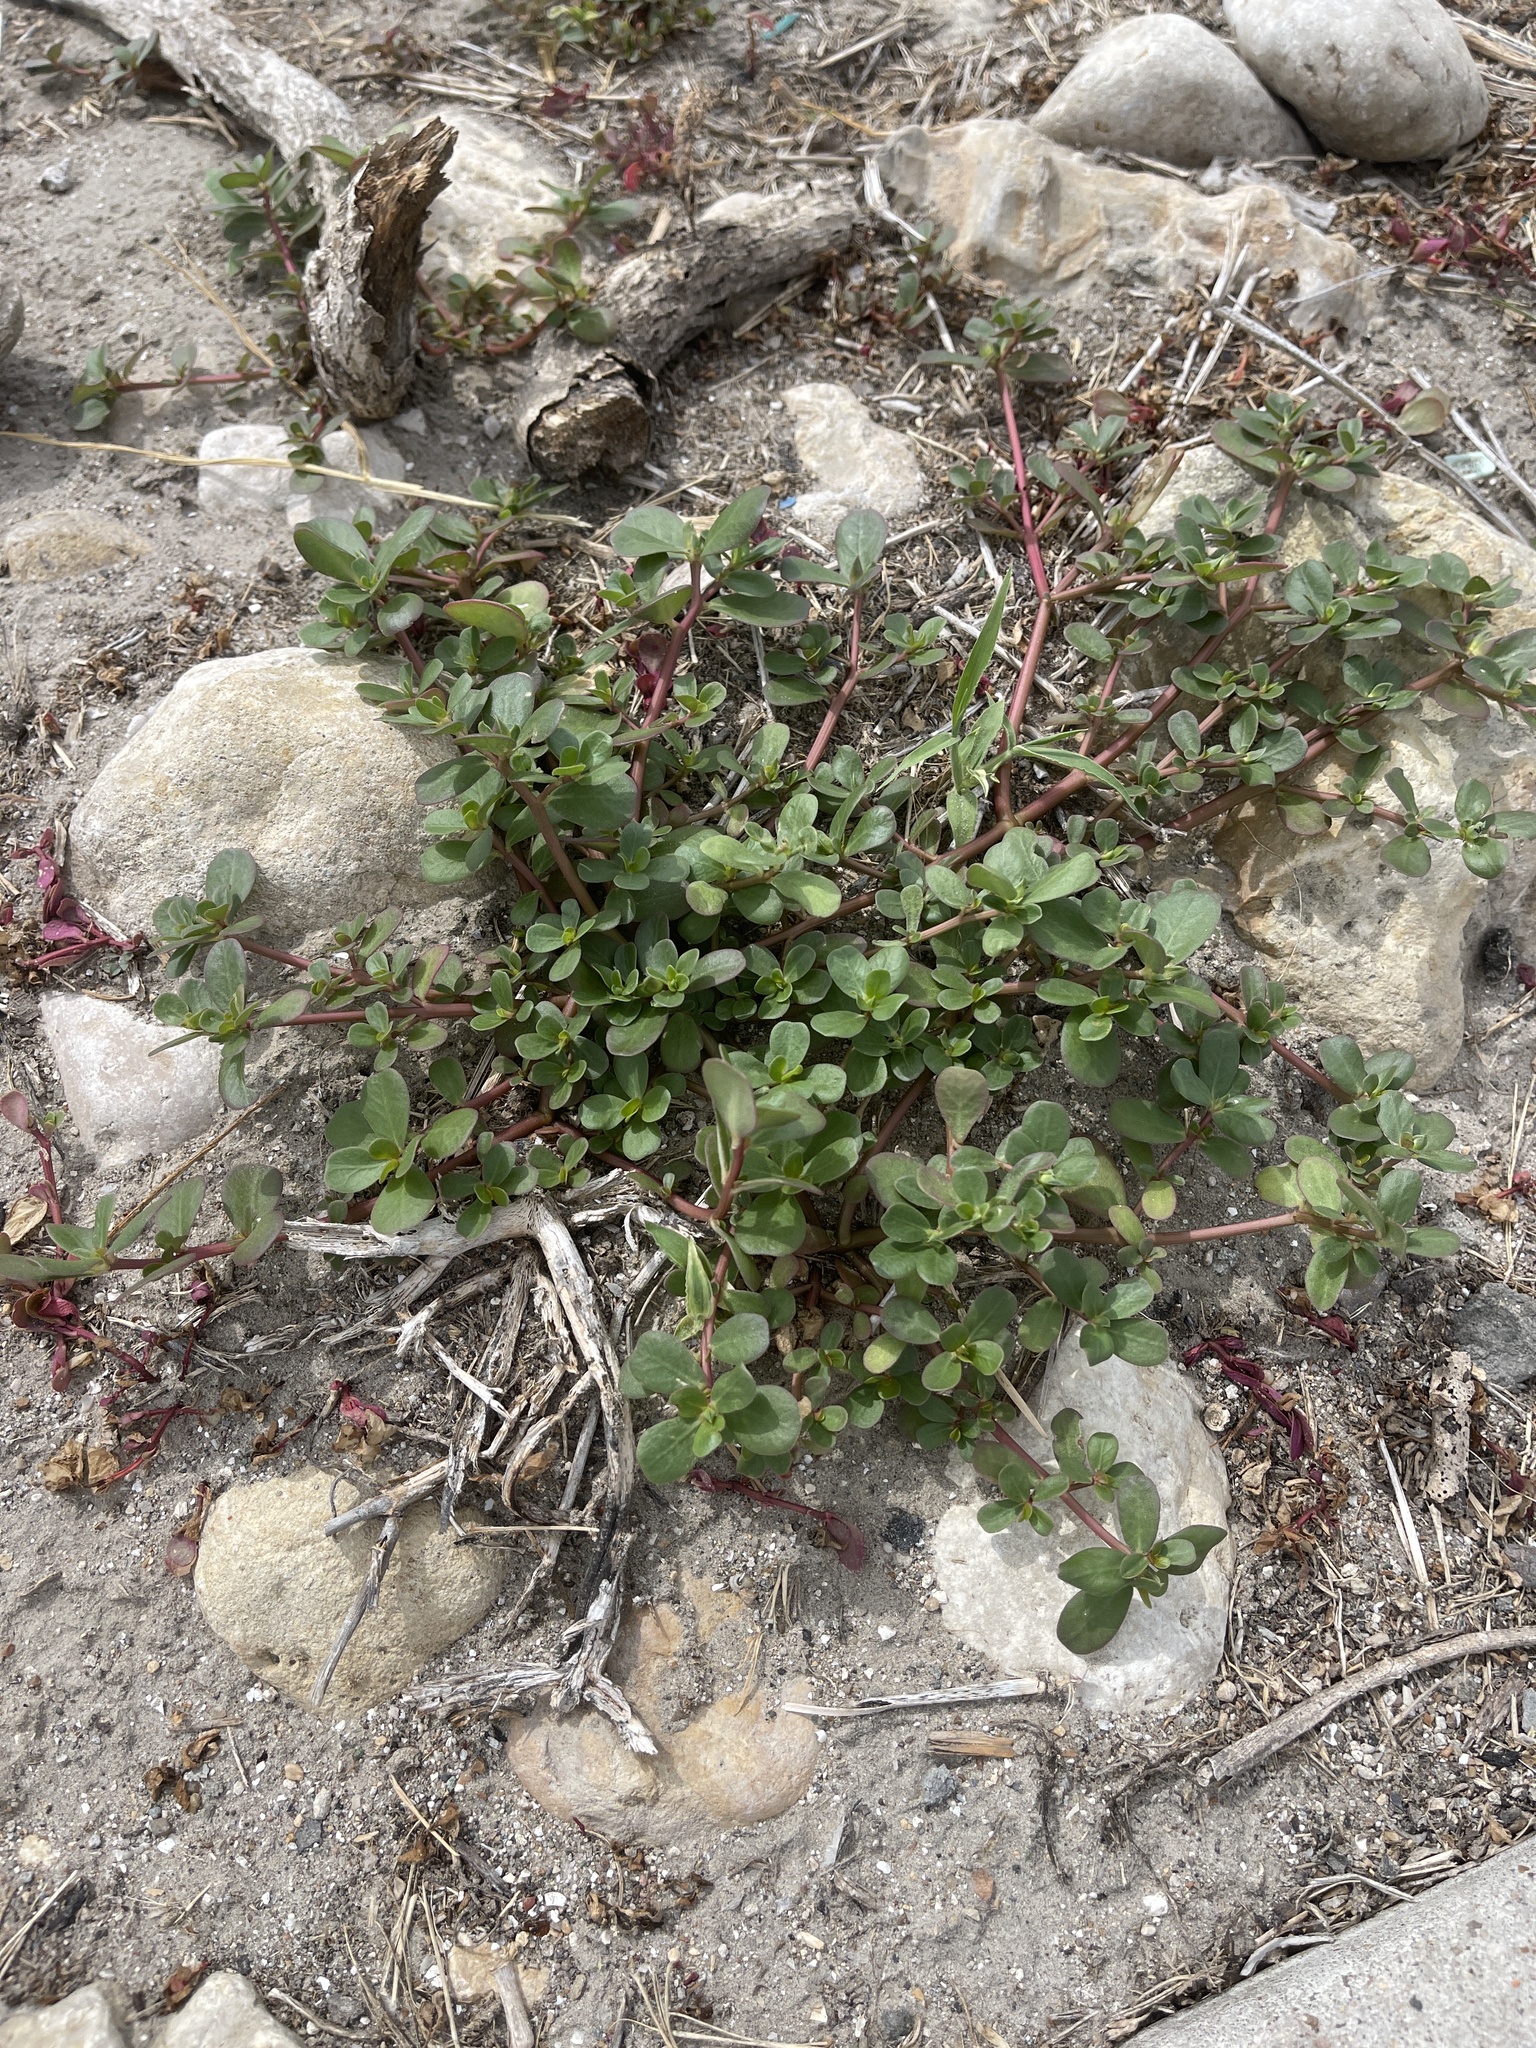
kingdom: Plantae
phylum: Tracheophyta
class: Magnoliopsida
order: Caryophyllales
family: Aizoaceae
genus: Trianthema
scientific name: Trianthema portulacastrum
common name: Desert horsepurslane
